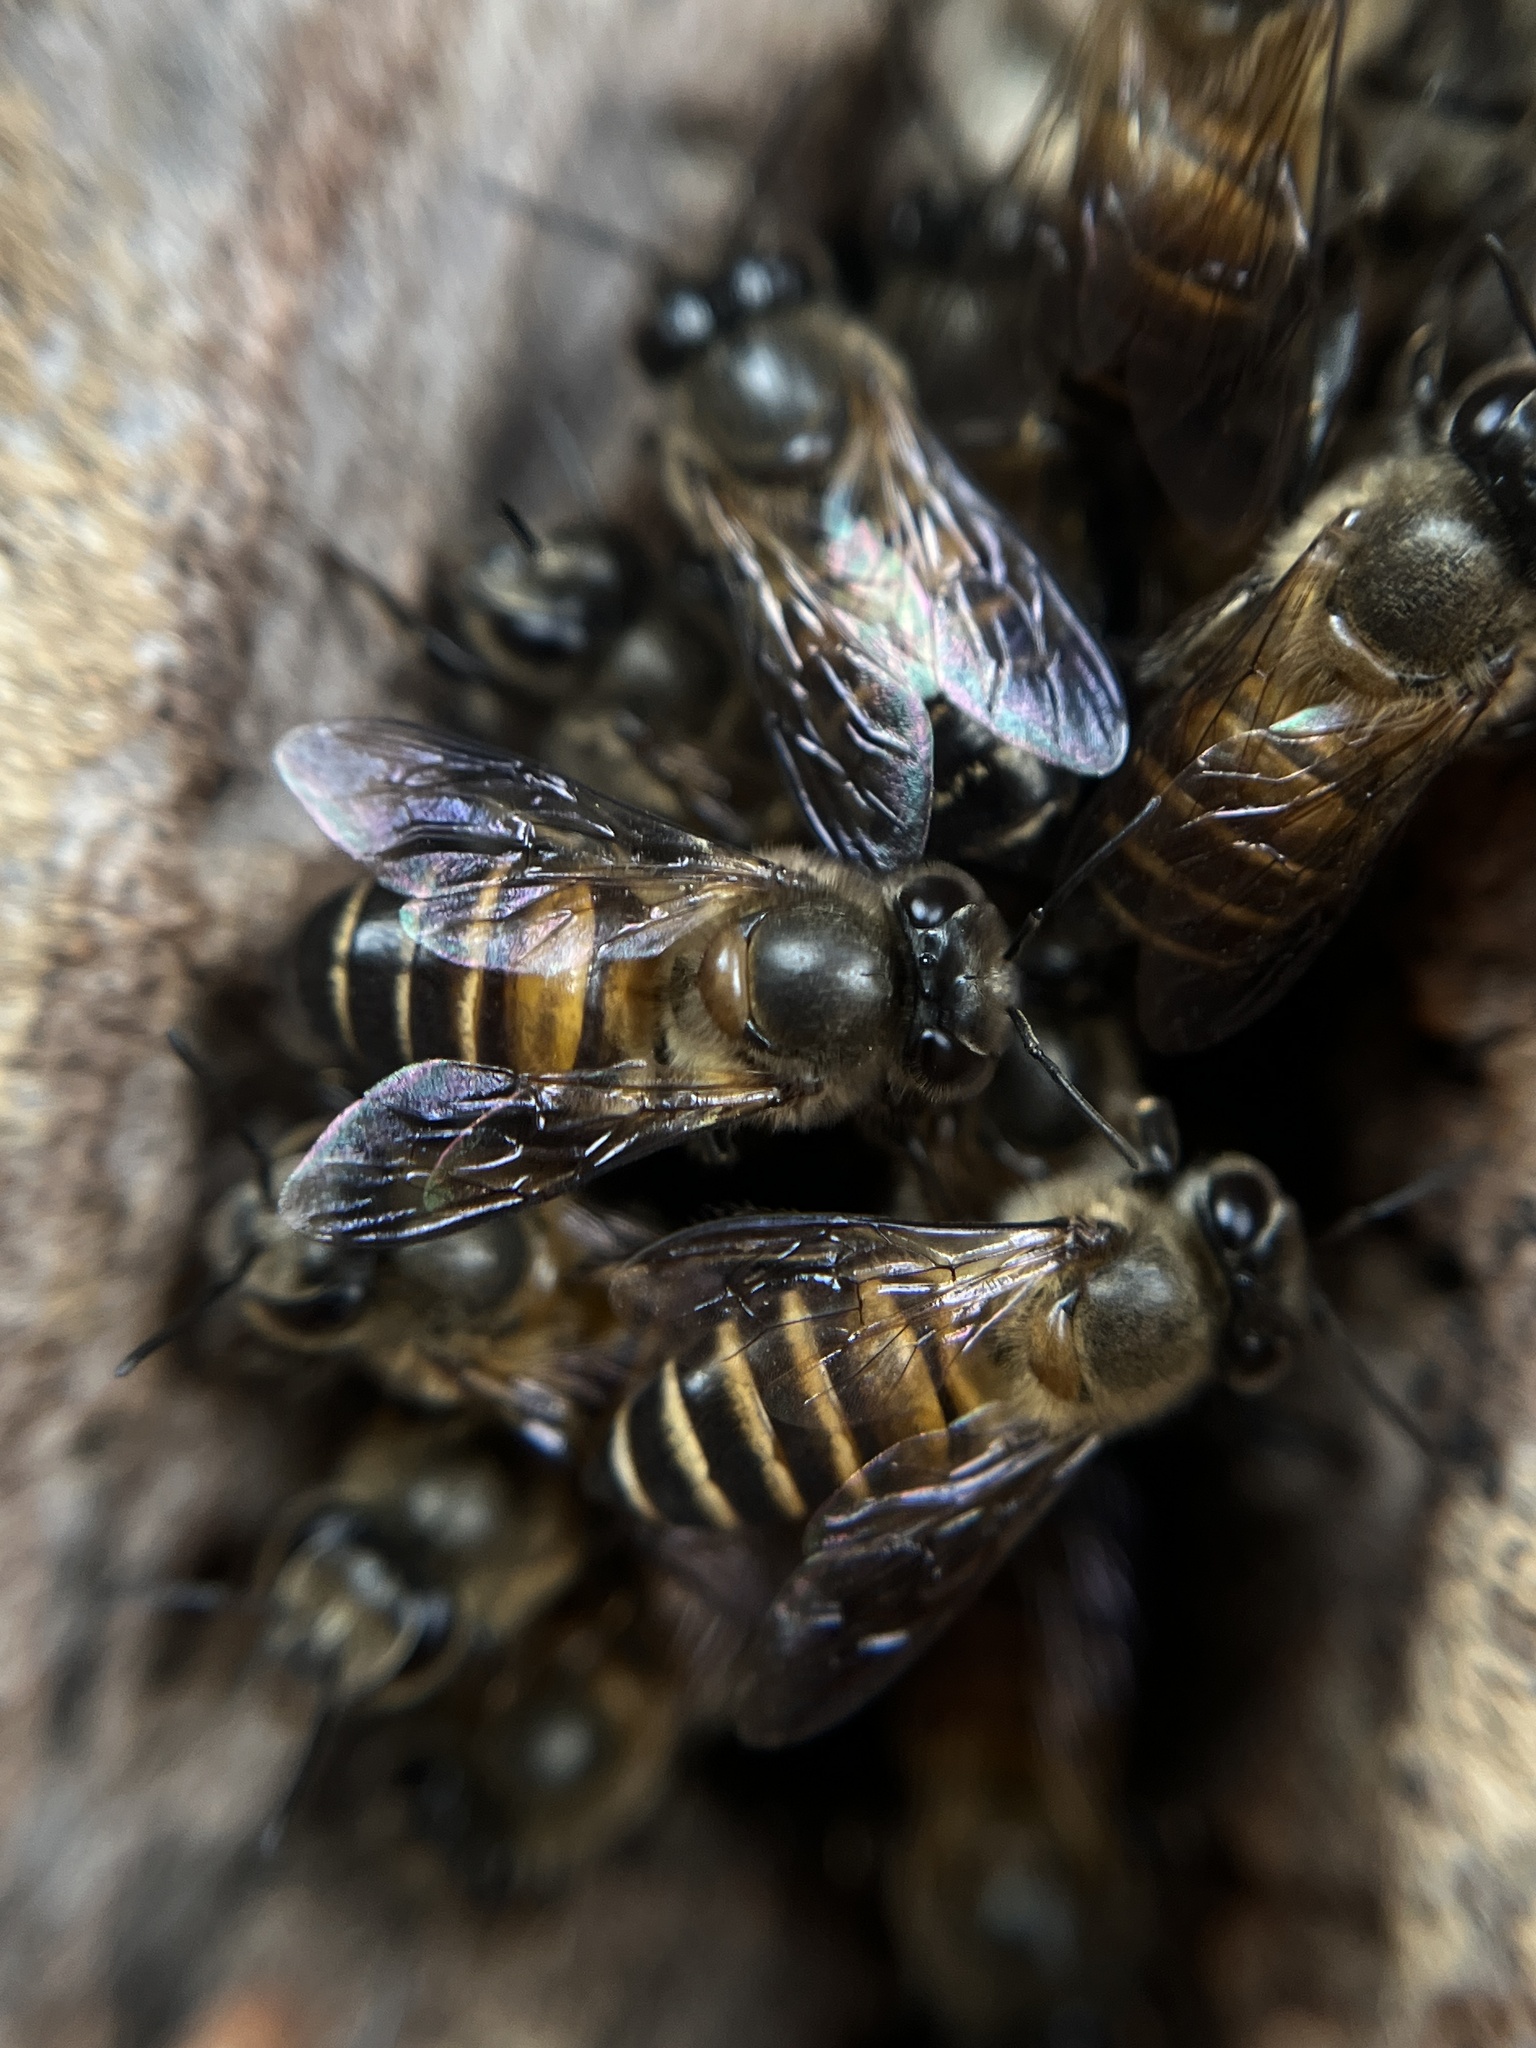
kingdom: Animalia
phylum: Arthropoda
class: Insecta
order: Hymenoptera
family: Apidae
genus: Apis
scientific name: Apis cerana
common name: Honey bee
